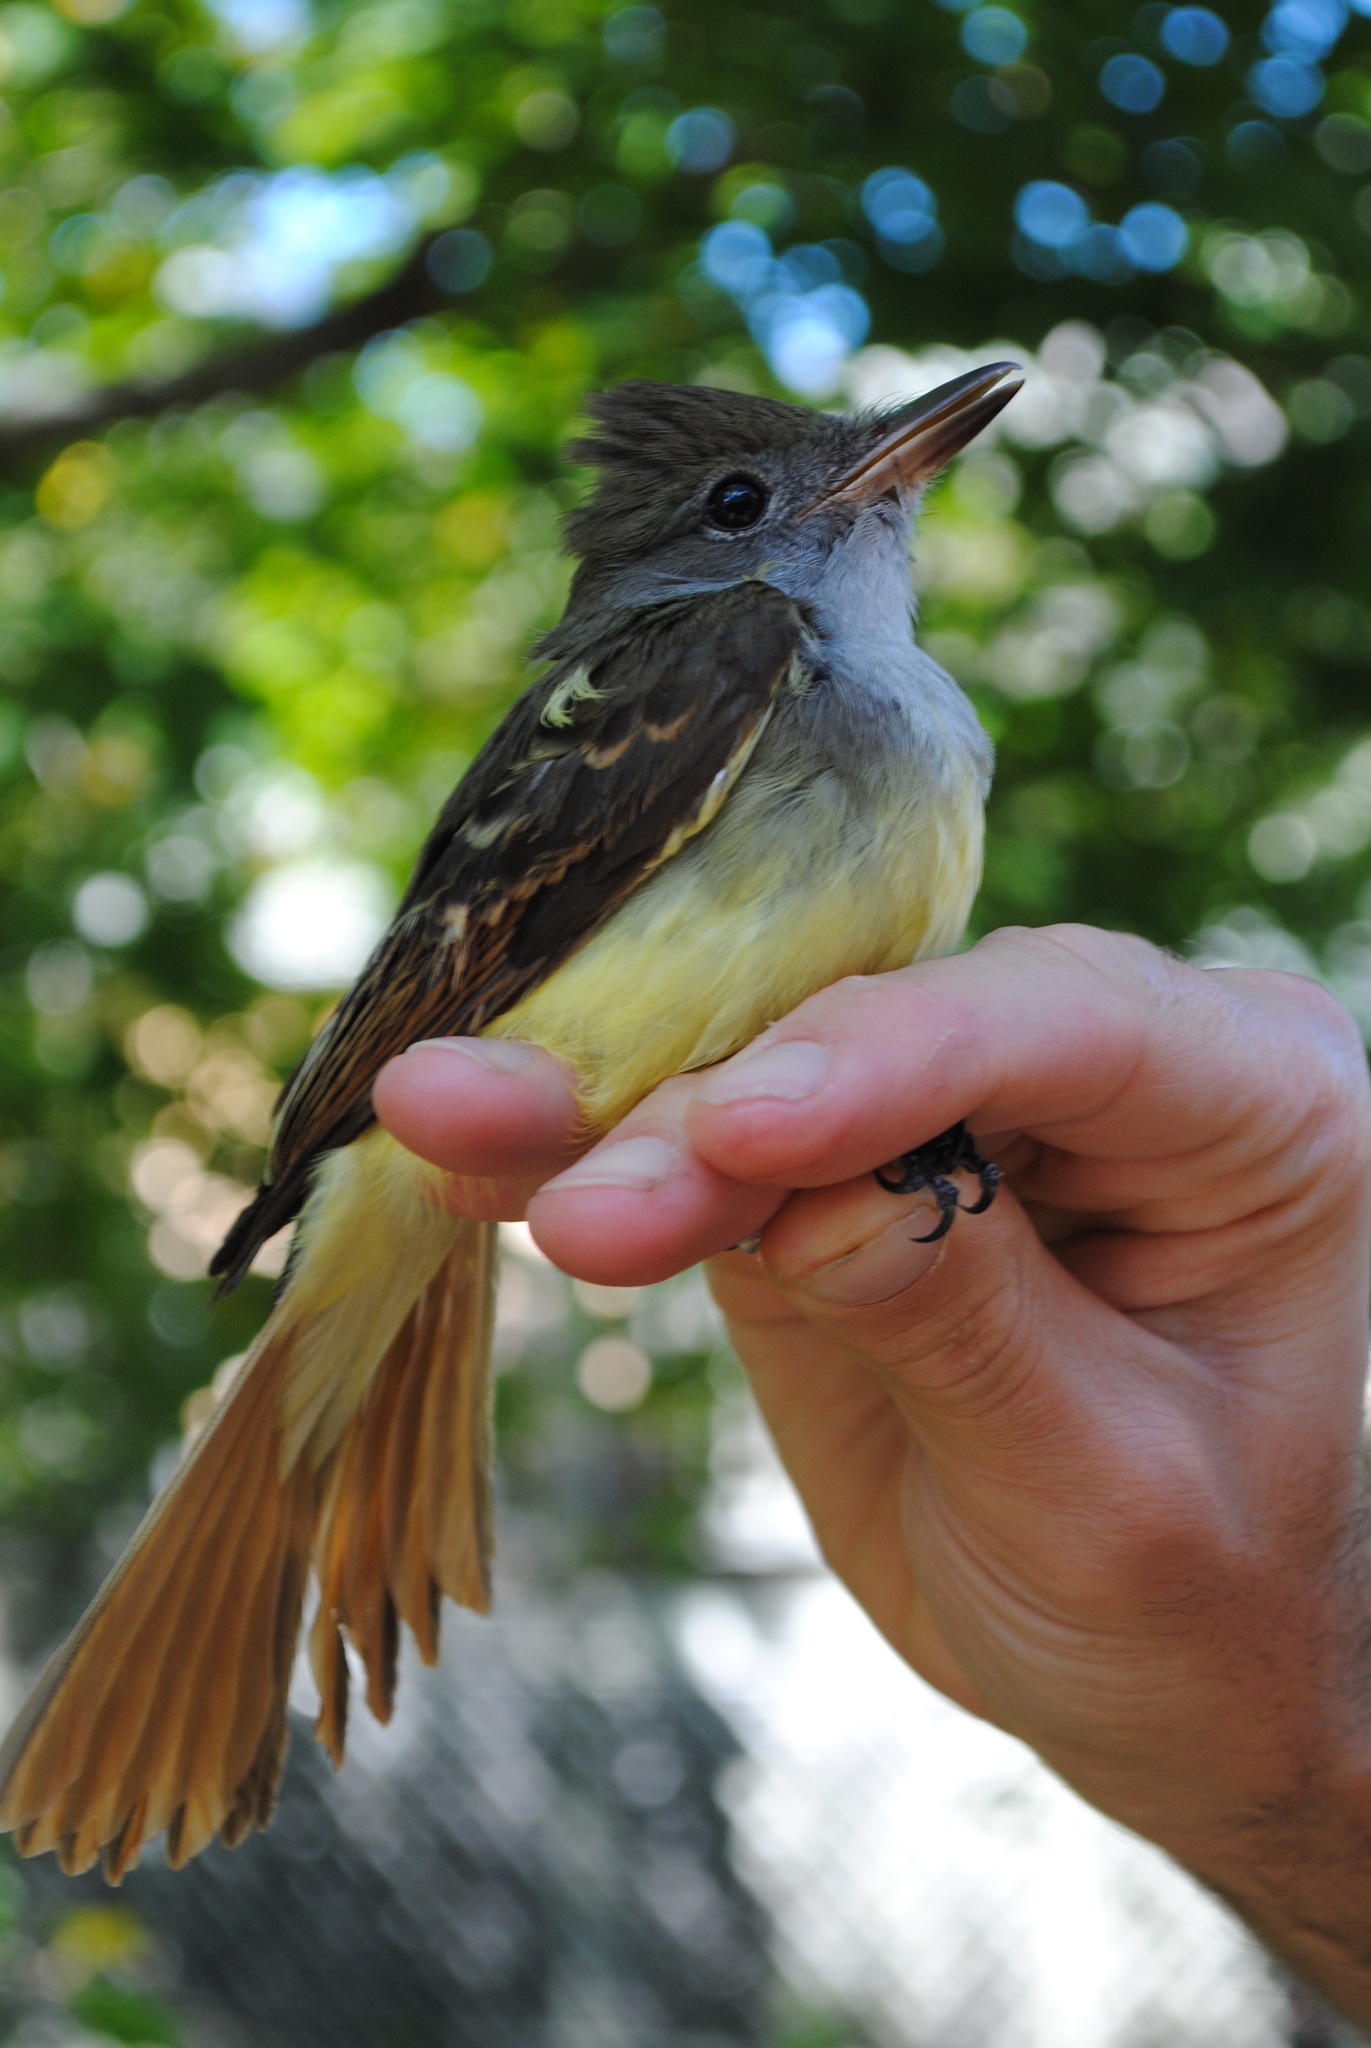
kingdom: Animalia
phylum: Chordata
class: Aves
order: Passeriformes
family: Tyrannidae
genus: Myiarchus
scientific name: Myiarchus crinitus
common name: Great crested flycatcher
